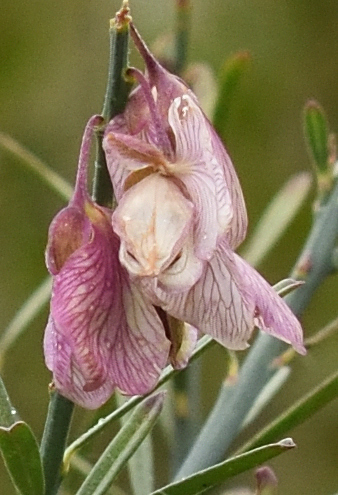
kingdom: Plantae
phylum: Tracheophyta
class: Magnoliopsida
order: Fabales
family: Polygalaceae
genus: Polygala
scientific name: Polygala virgata
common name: Milkwort
